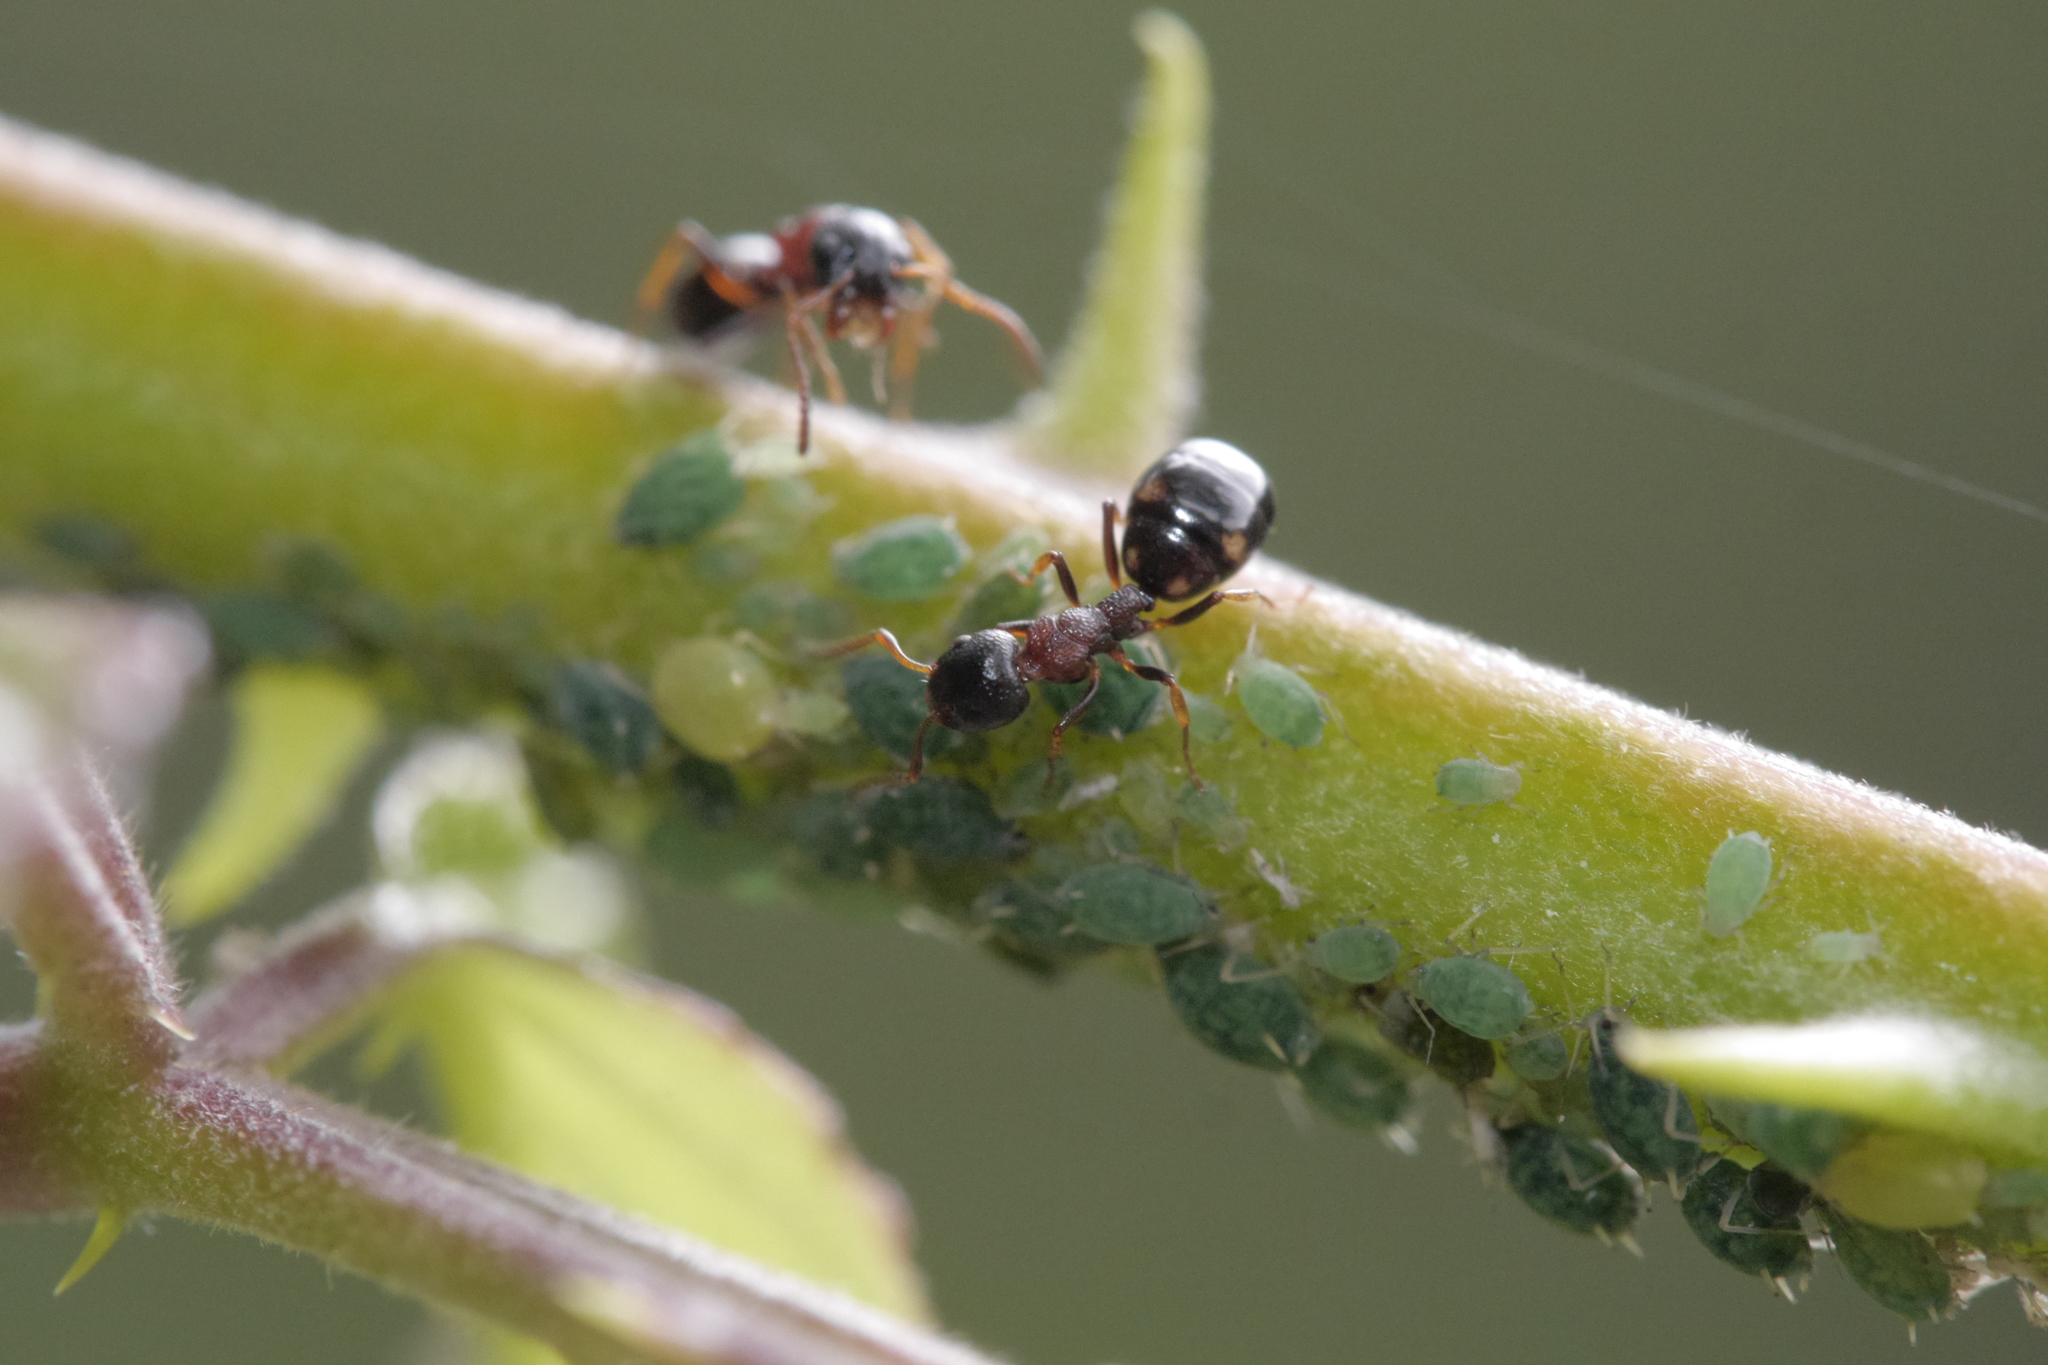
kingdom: Animalia
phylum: Arthropoda
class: Insecta
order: Hymenoptera
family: Formicidae
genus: Dolichoderus
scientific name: Dolichoderus quadripunctatus
